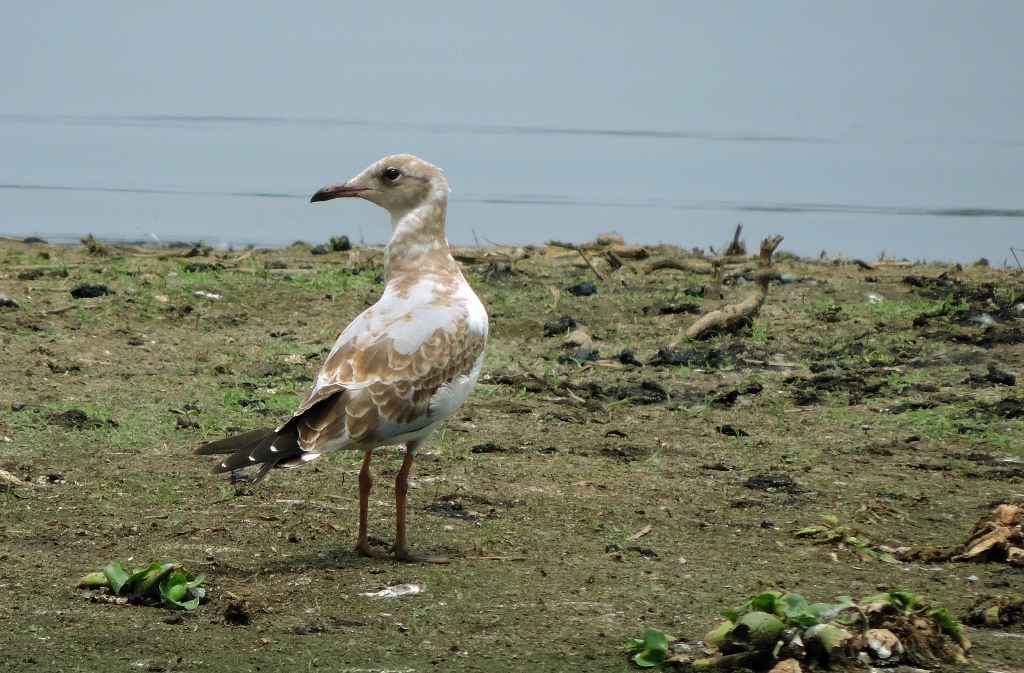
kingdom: Animalia
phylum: Chordata
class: Aves
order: Charadriiformes
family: Laridae
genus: Chroicocephalus
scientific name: Chroicocephalus cirrocephalus
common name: Grey-headed gull
